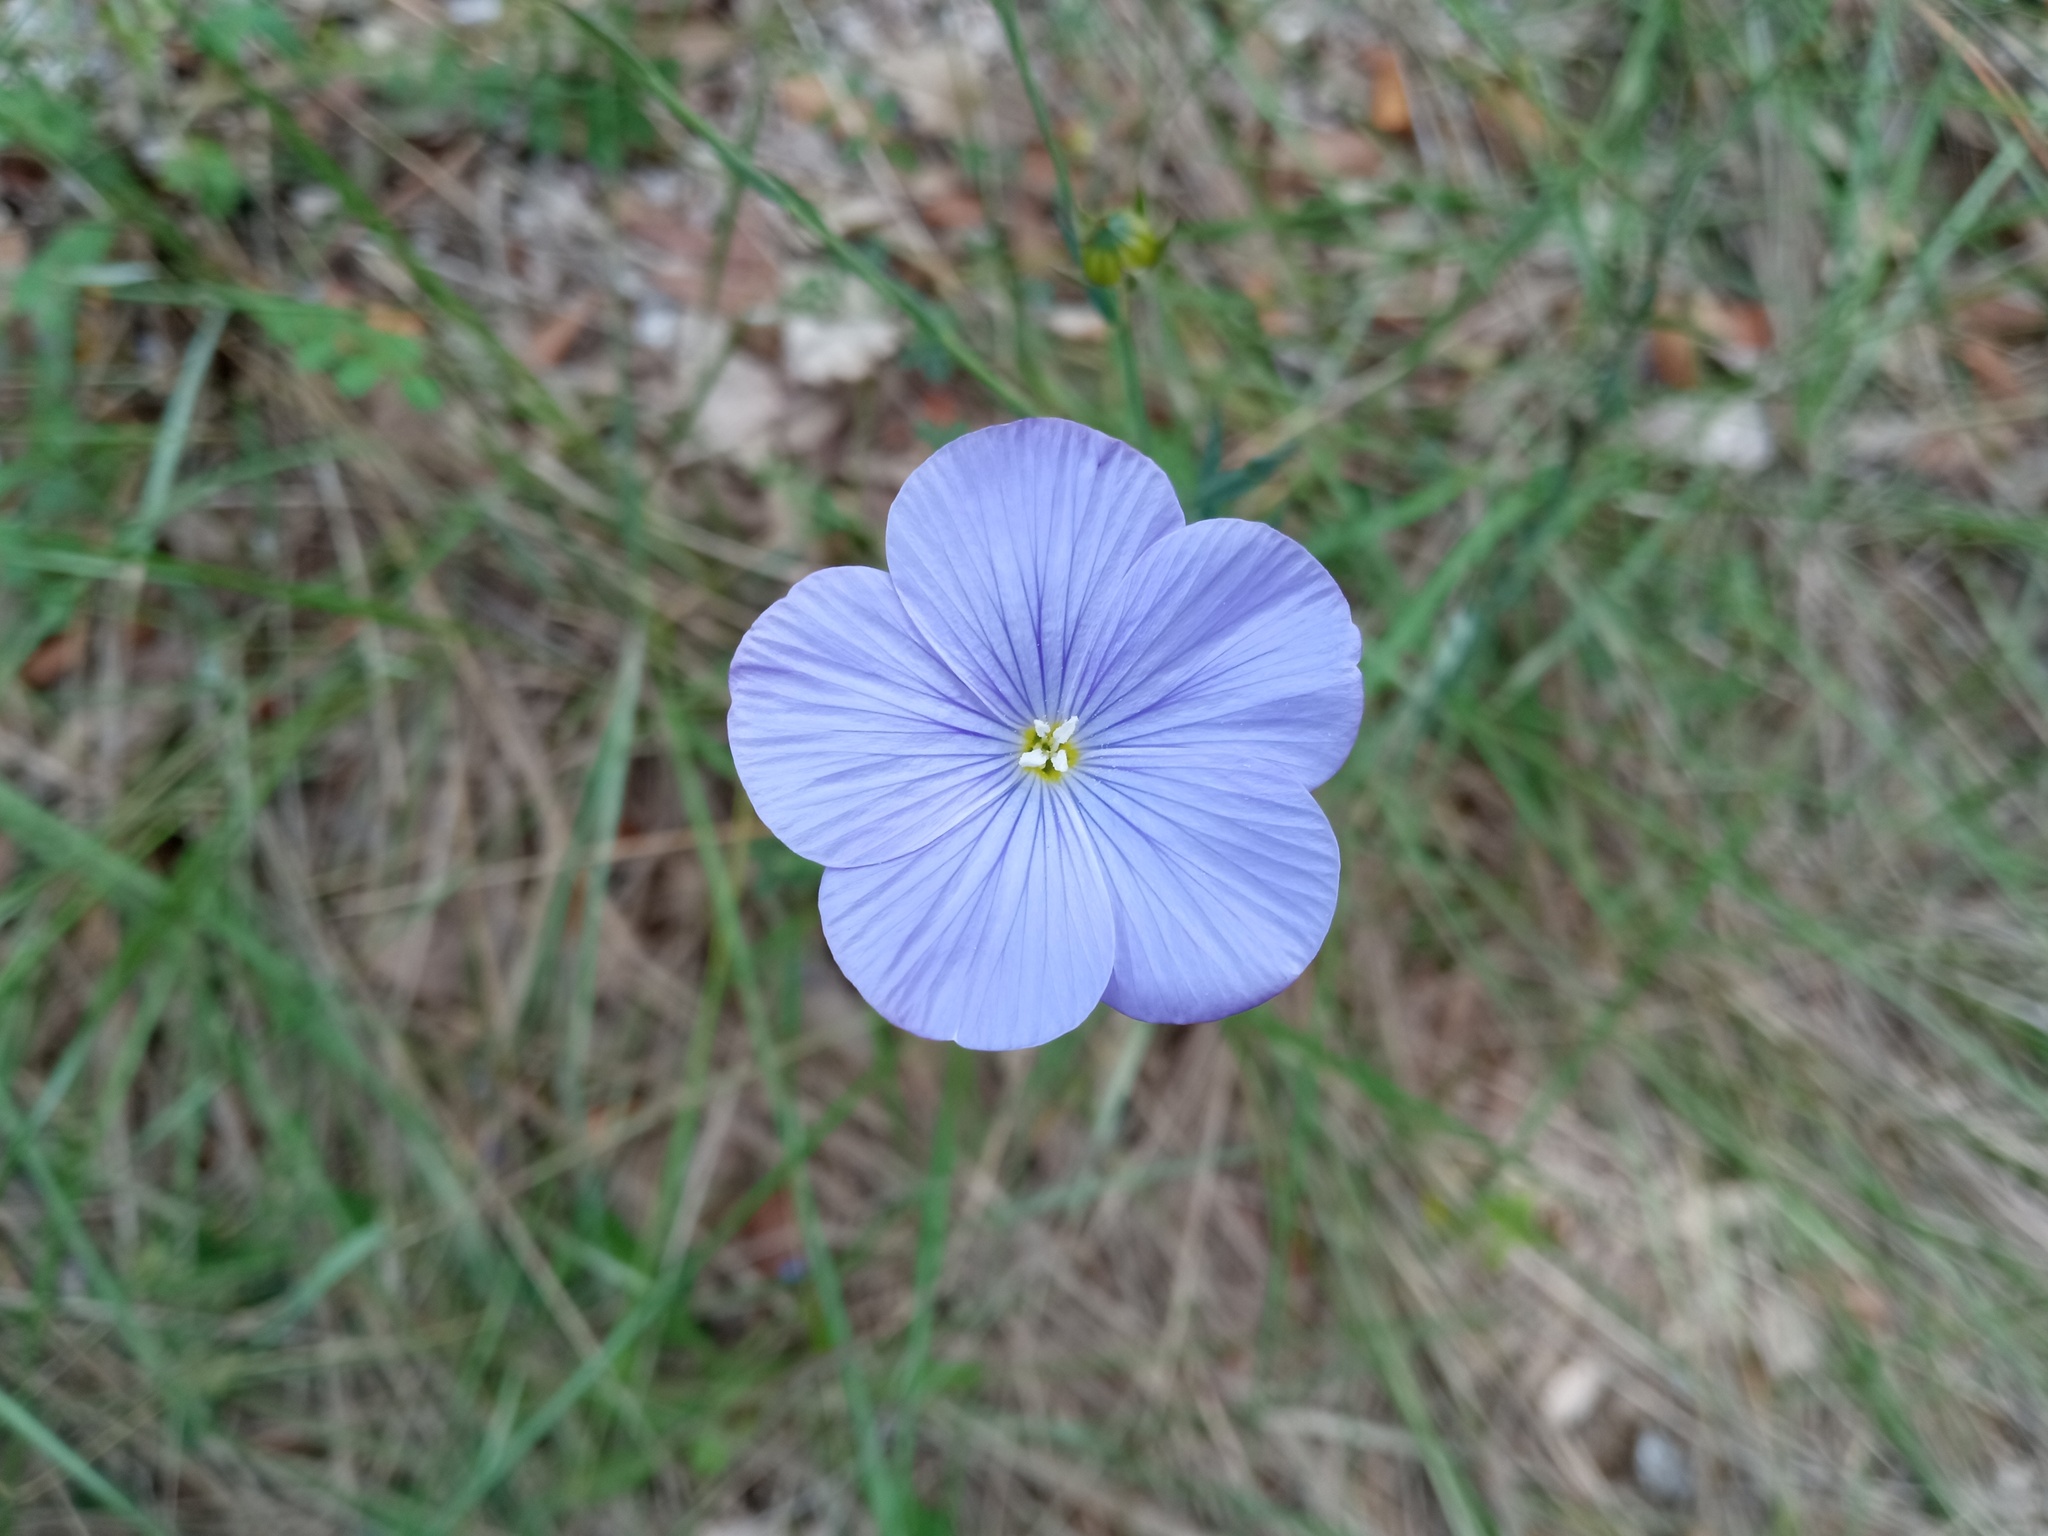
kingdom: Plantae
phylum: Tracheophyta
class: Magnoliopsida
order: Malpighiales
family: Linaceae
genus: Linum
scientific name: Linum narbonense
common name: Flax
